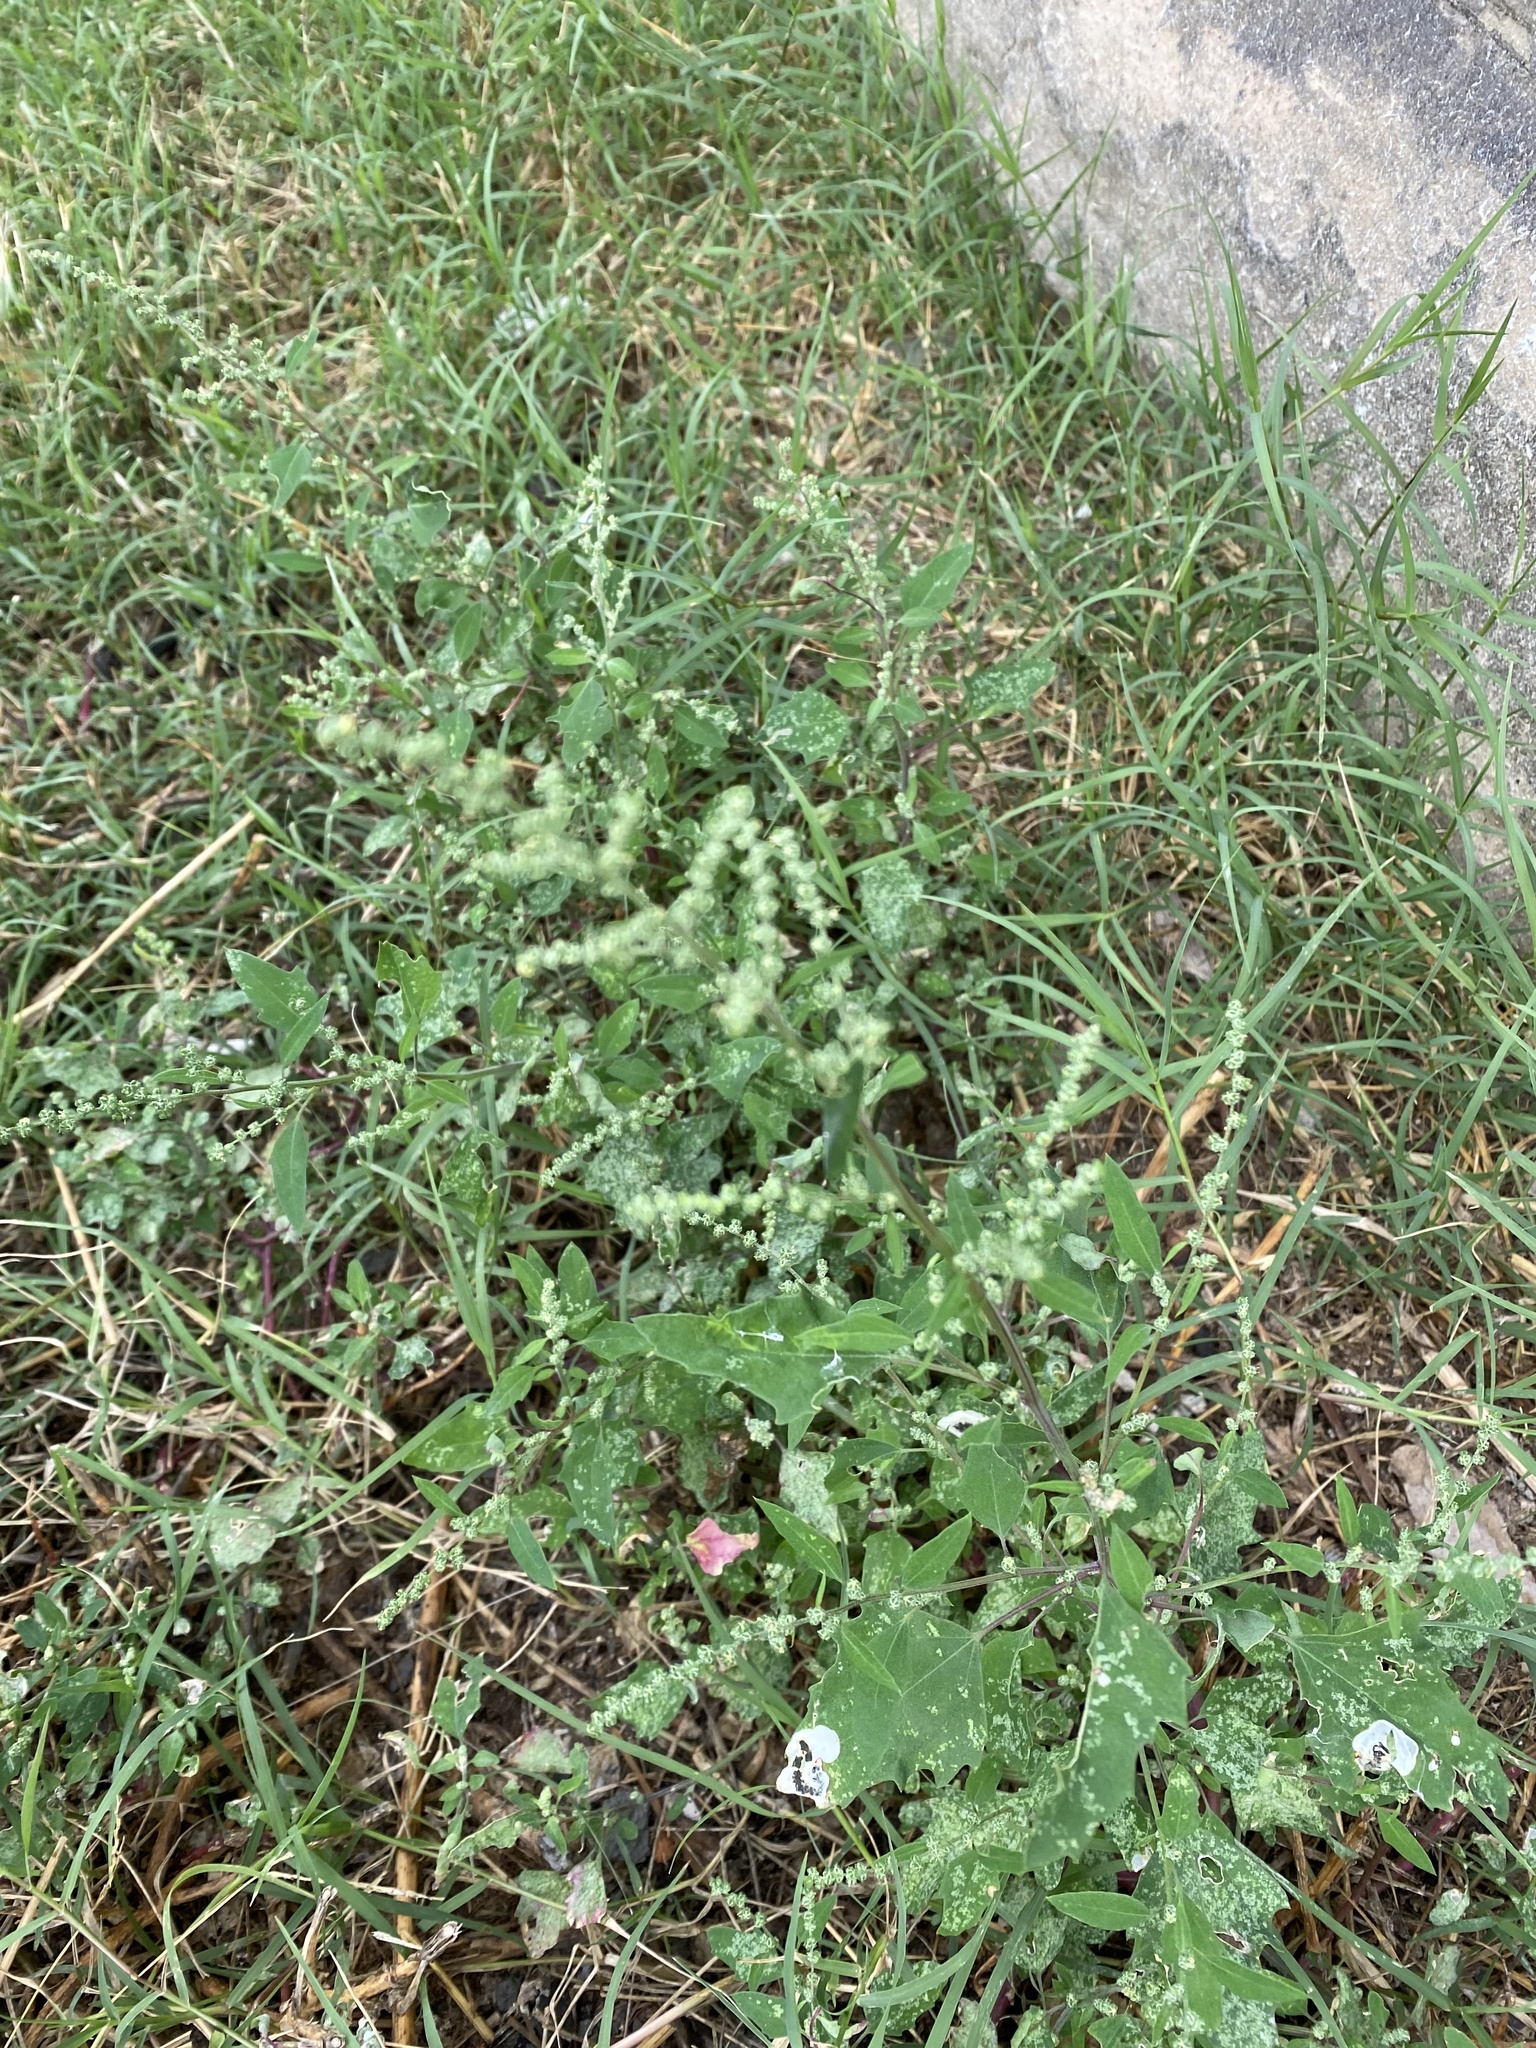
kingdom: Plantae
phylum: Tracheophyta
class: Magnoliopsida
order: Caryophyllales
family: Amaranthaceae
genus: Chenopodium
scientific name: Chenopodium album
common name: Fat-hen
